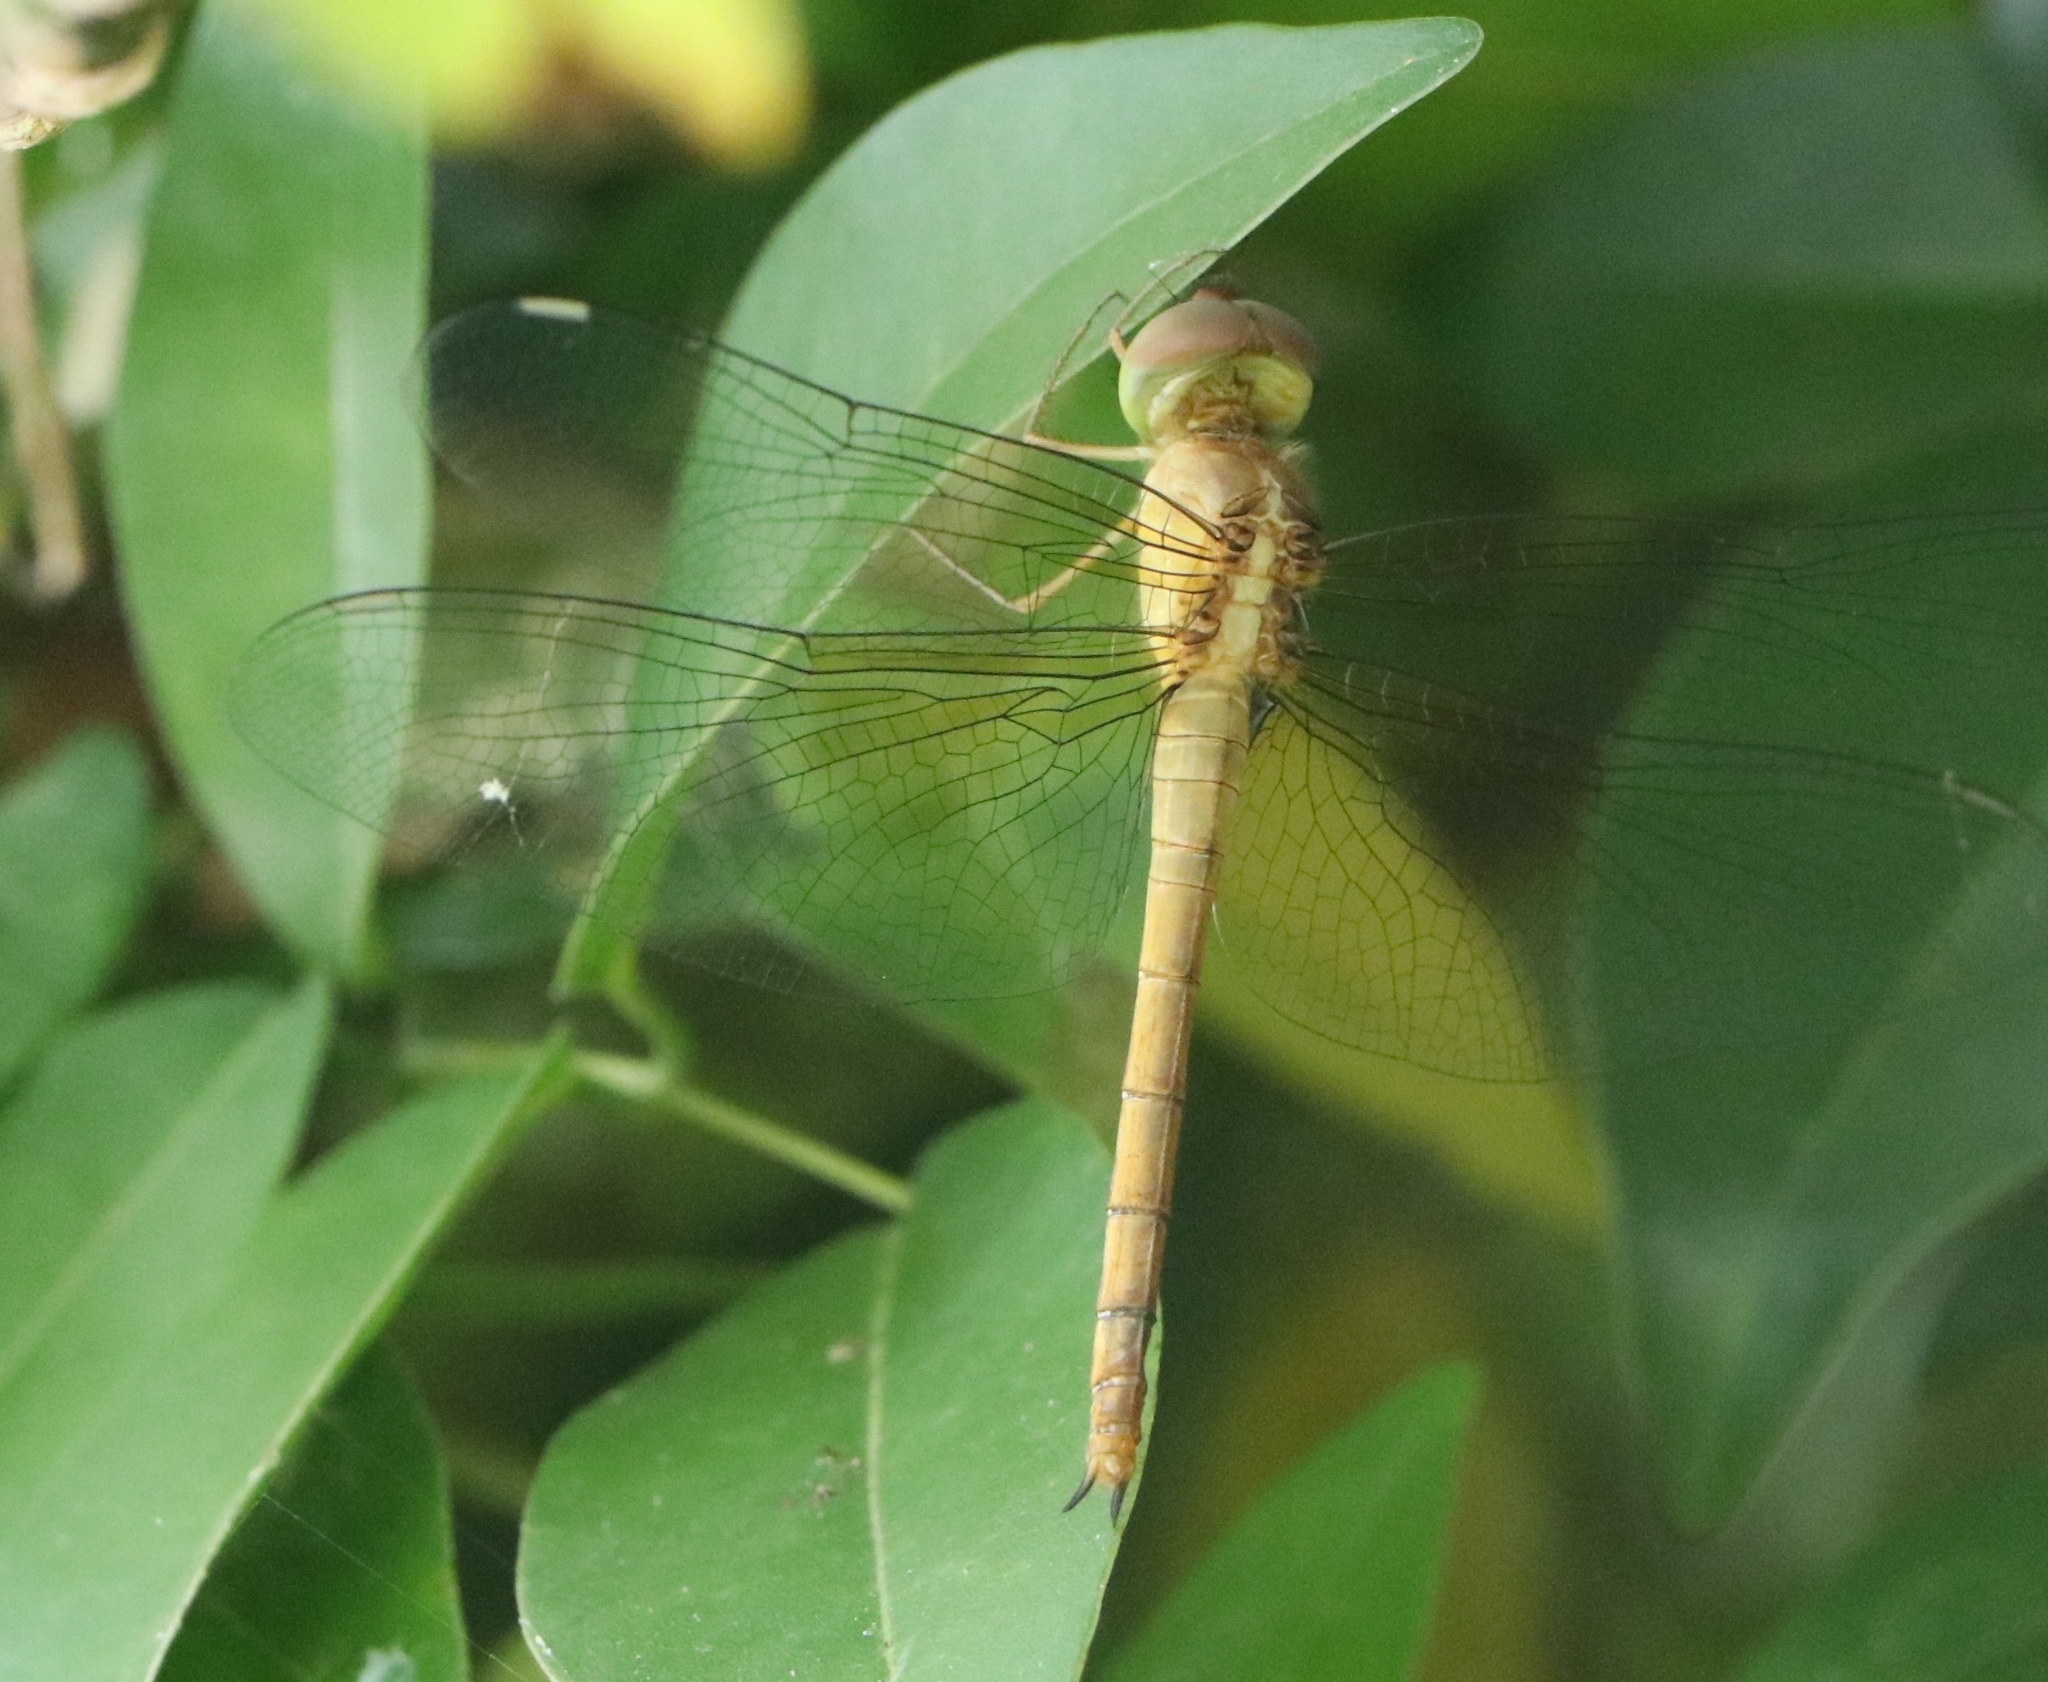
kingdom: Animalia
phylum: Arthropoda
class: Insecta
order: Odonata
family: Libellulidae
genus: Tholymis
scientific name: Tholymis tillarga
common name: Coral-tailed cloud wing
